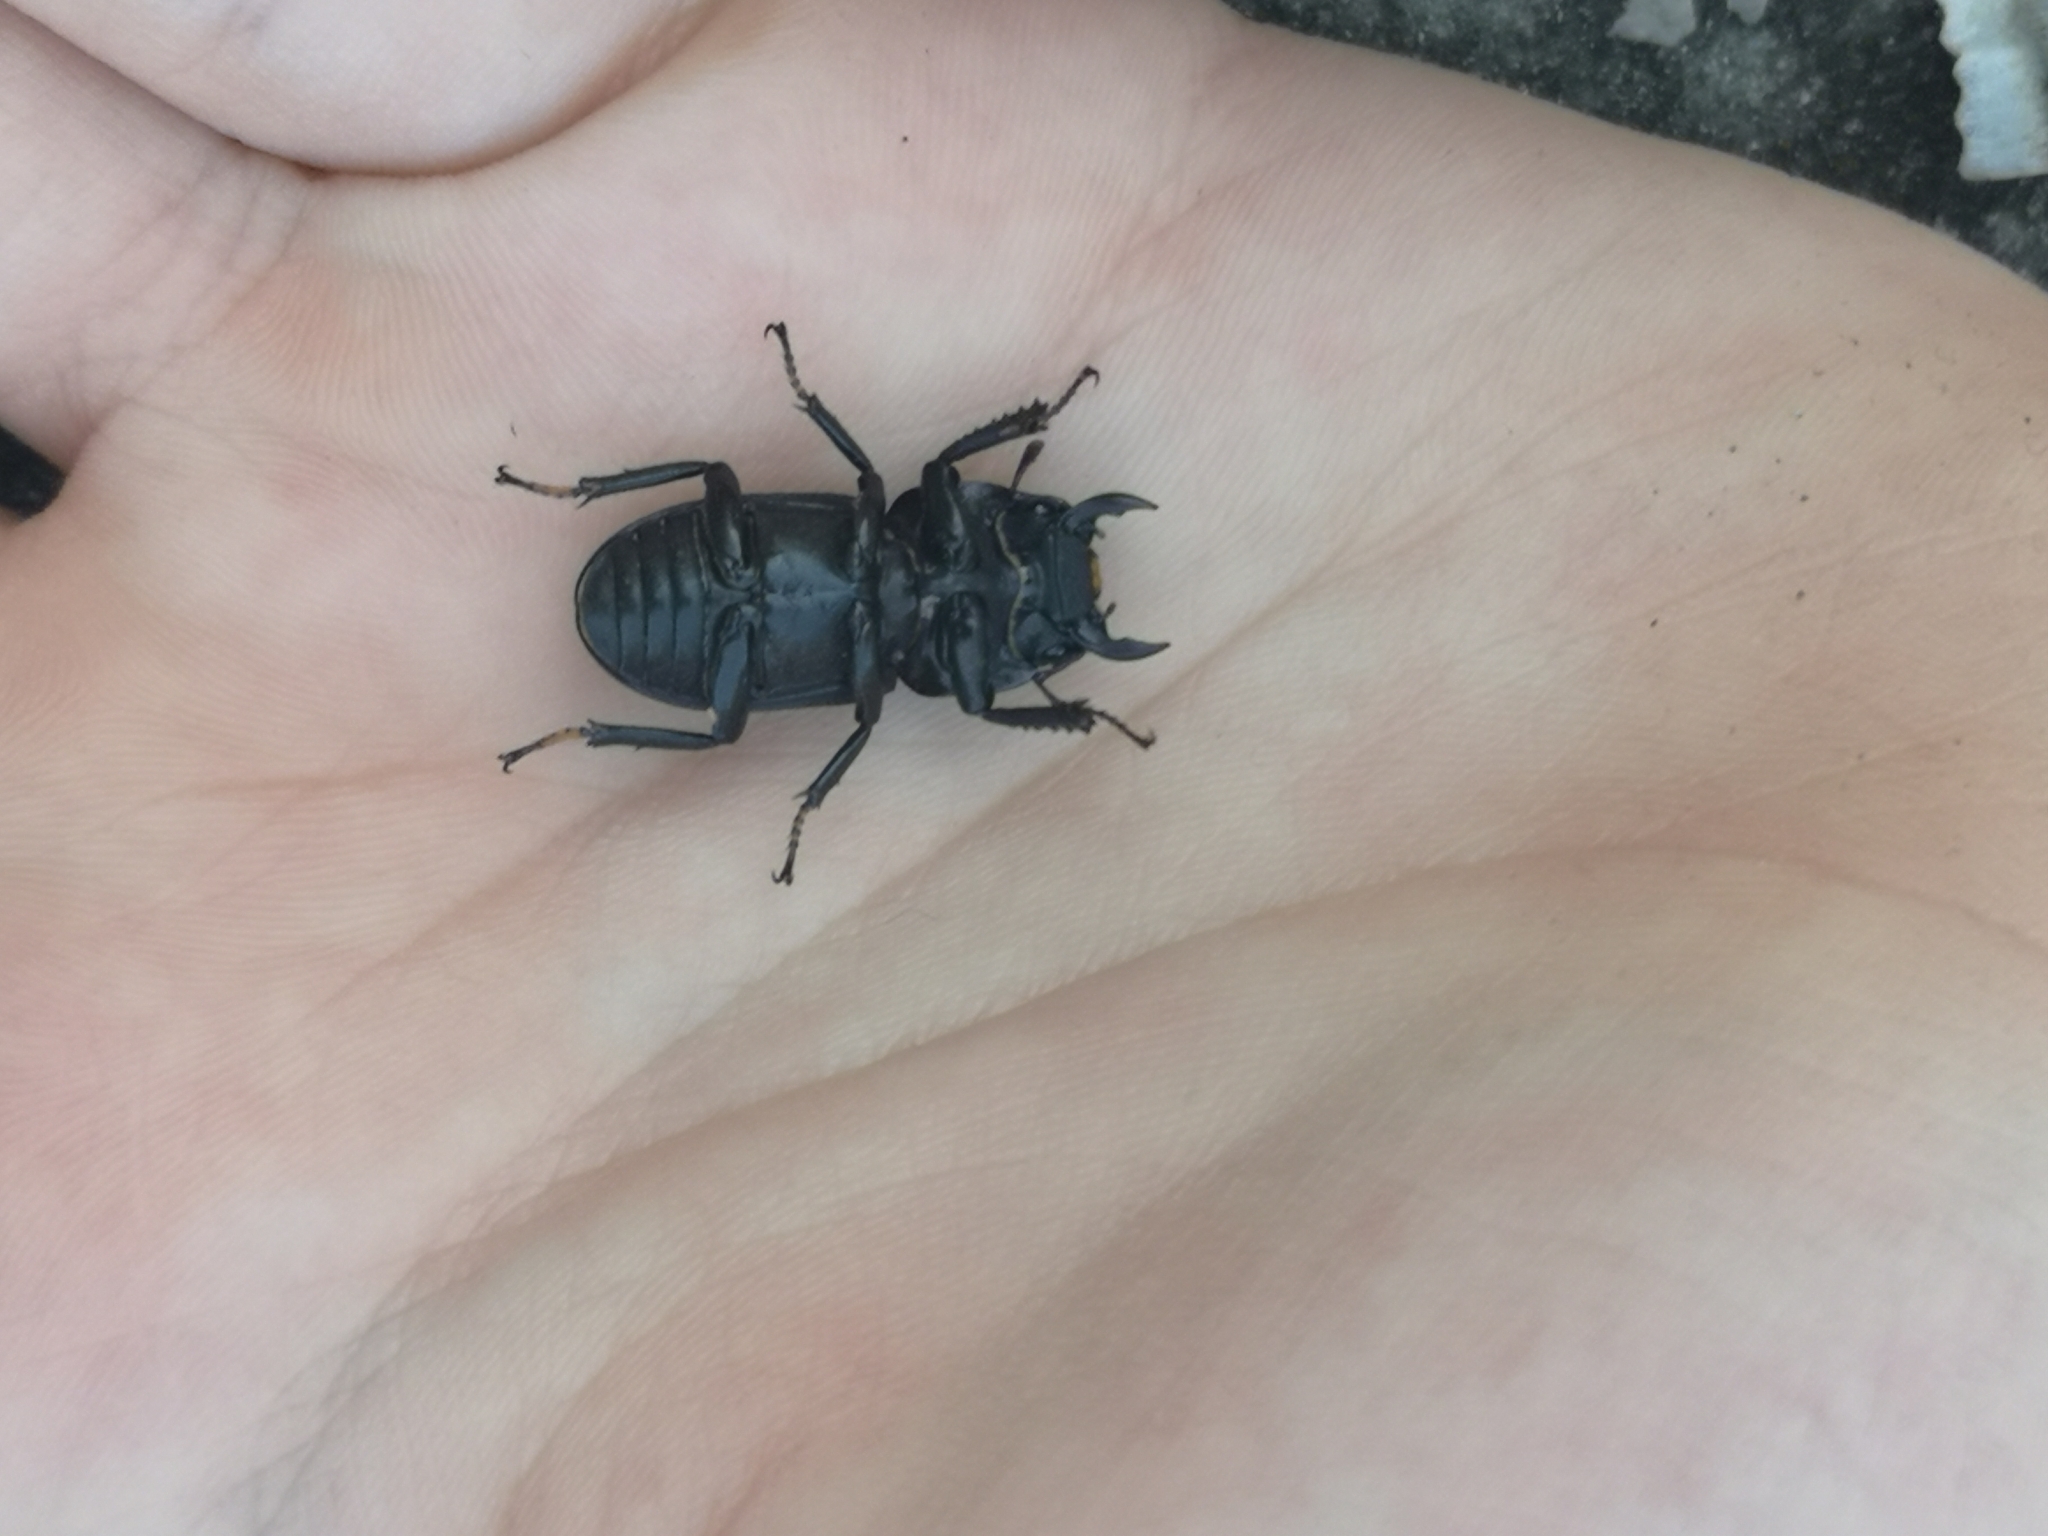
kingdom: Animalia
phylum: Arthropoda
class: Insecta
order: Coleoptera
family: Lucanidae
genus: Dorcus
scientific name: Dorcus parallelipipedus
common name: Lesser stag beetle
